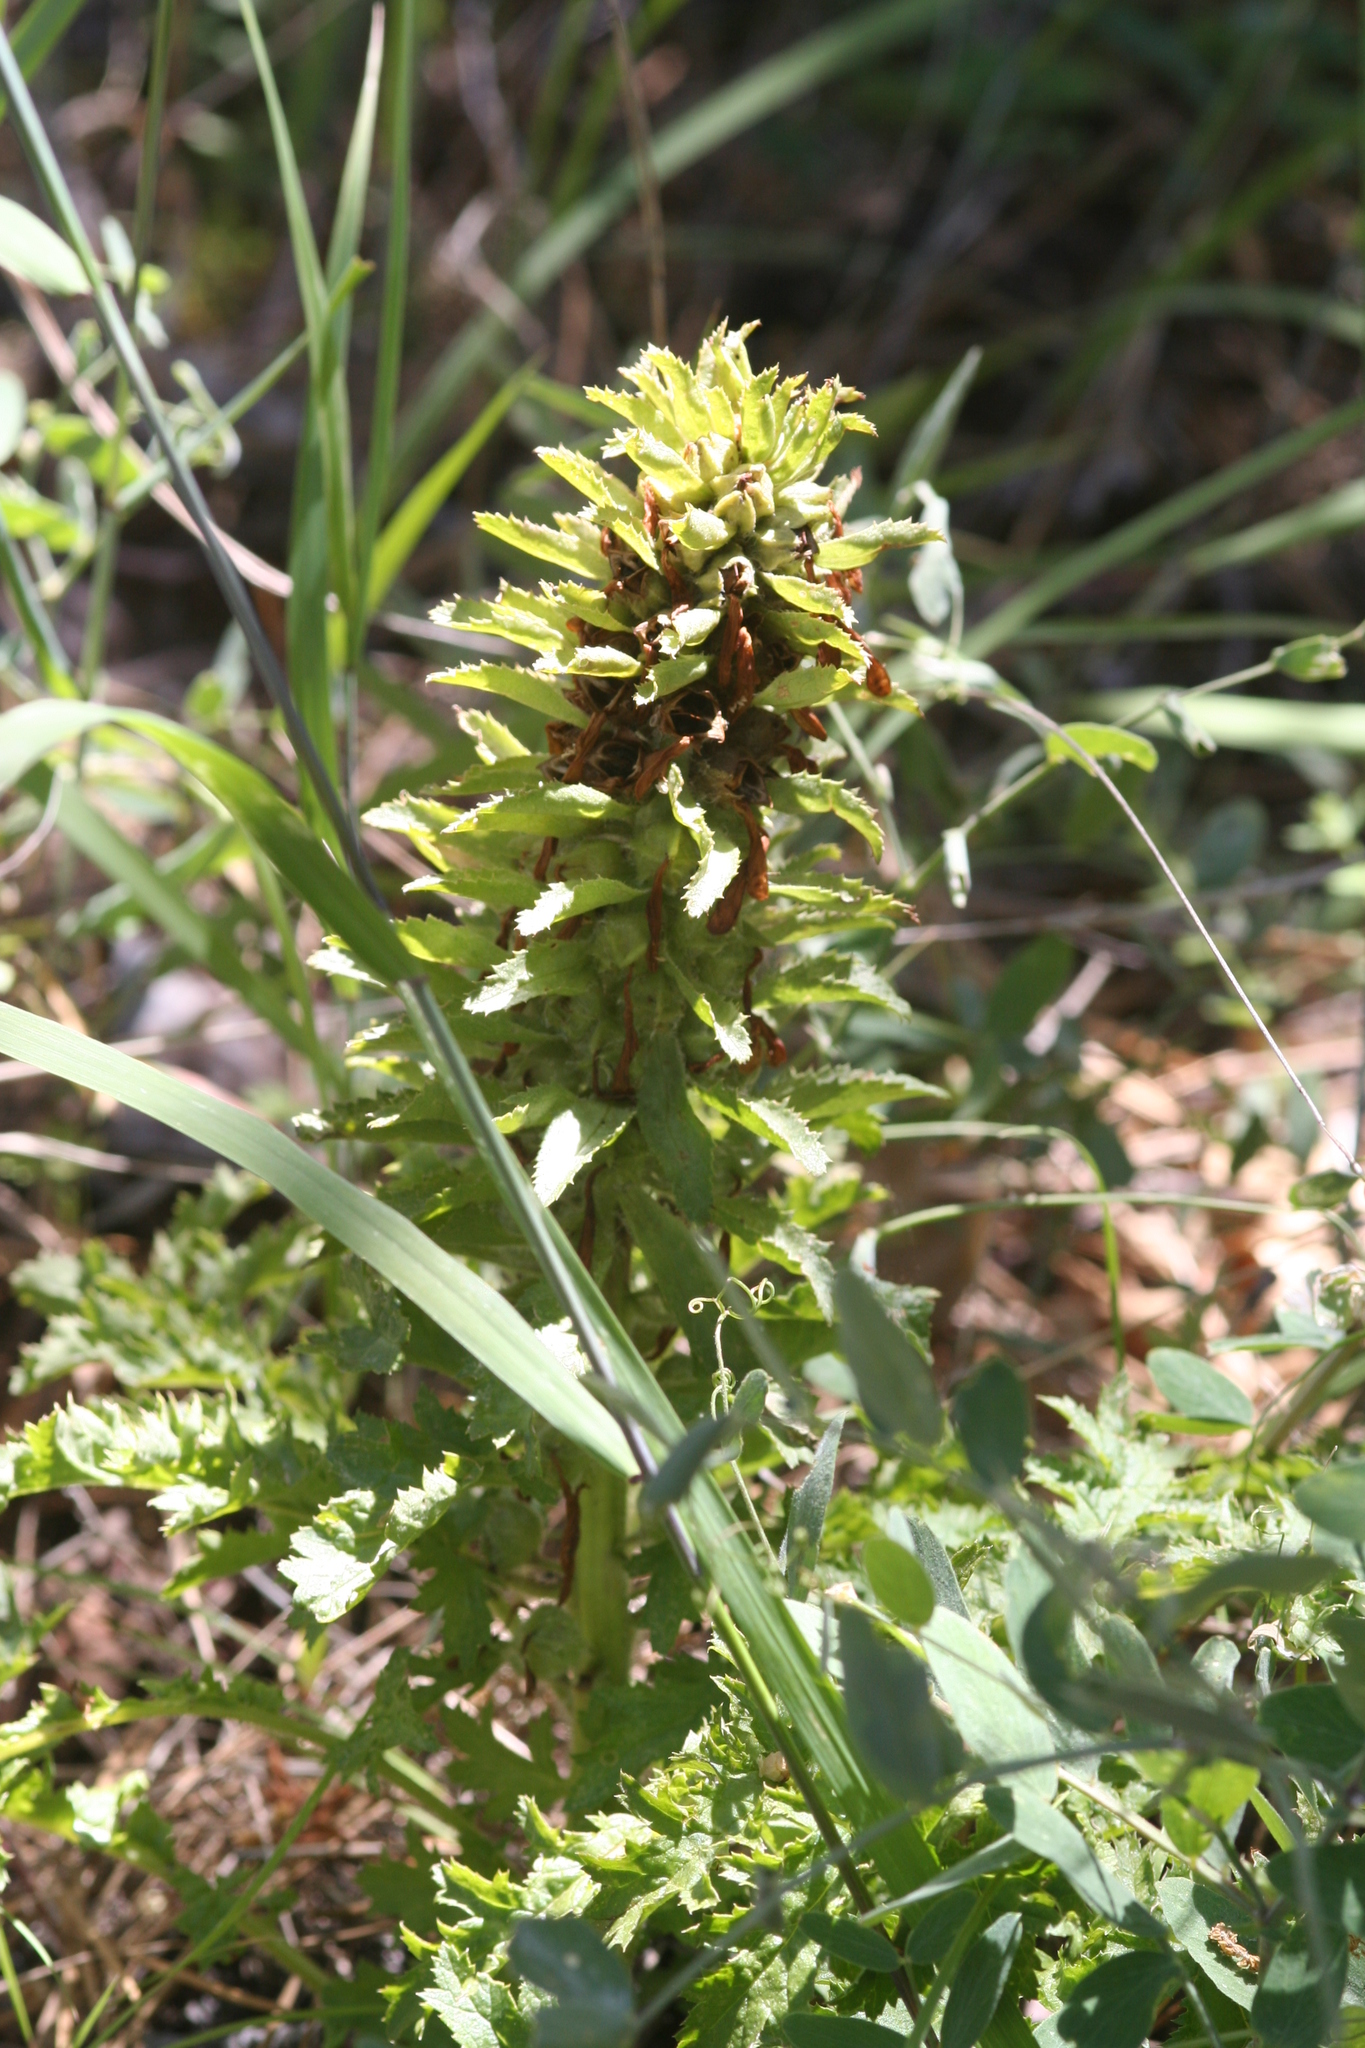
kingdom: Plantae
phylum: Tracheophyta
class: Magnoliopsida
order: Lamiales
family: Orobanchaceae
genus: Pedicularis
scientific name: Pedicularis densiflora
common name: Indian warrior
